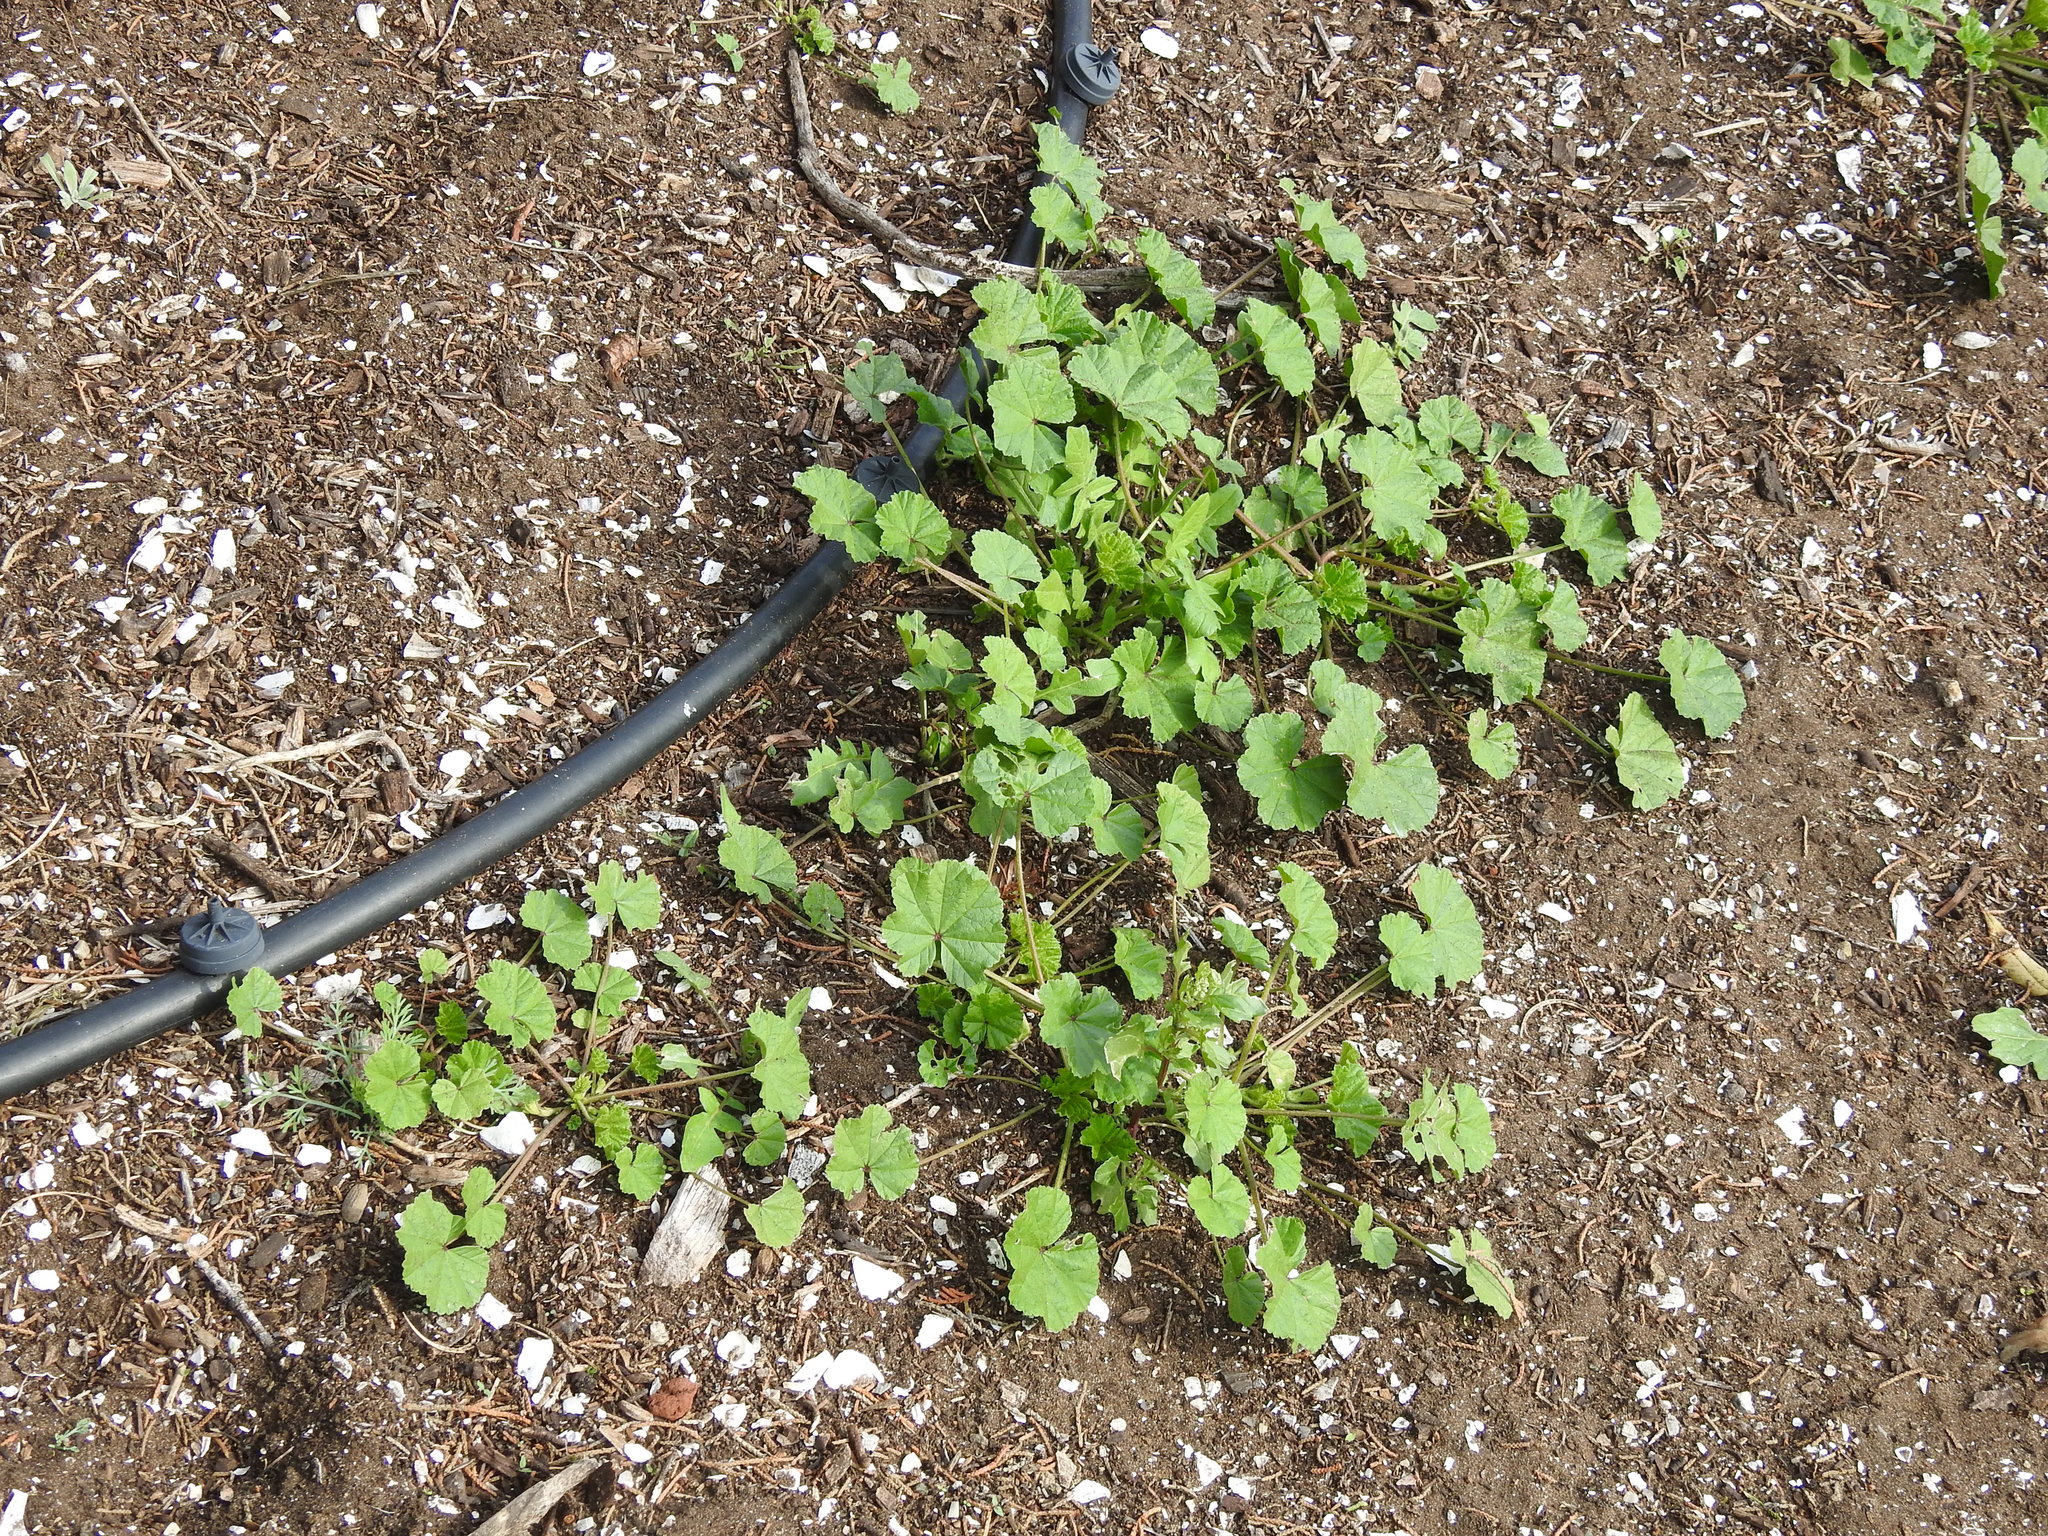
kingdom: Plantae
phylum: Tracheophyta
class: Magnoliopsida
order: Malvales
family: Malvaceae
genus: Malva
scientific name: Malva
